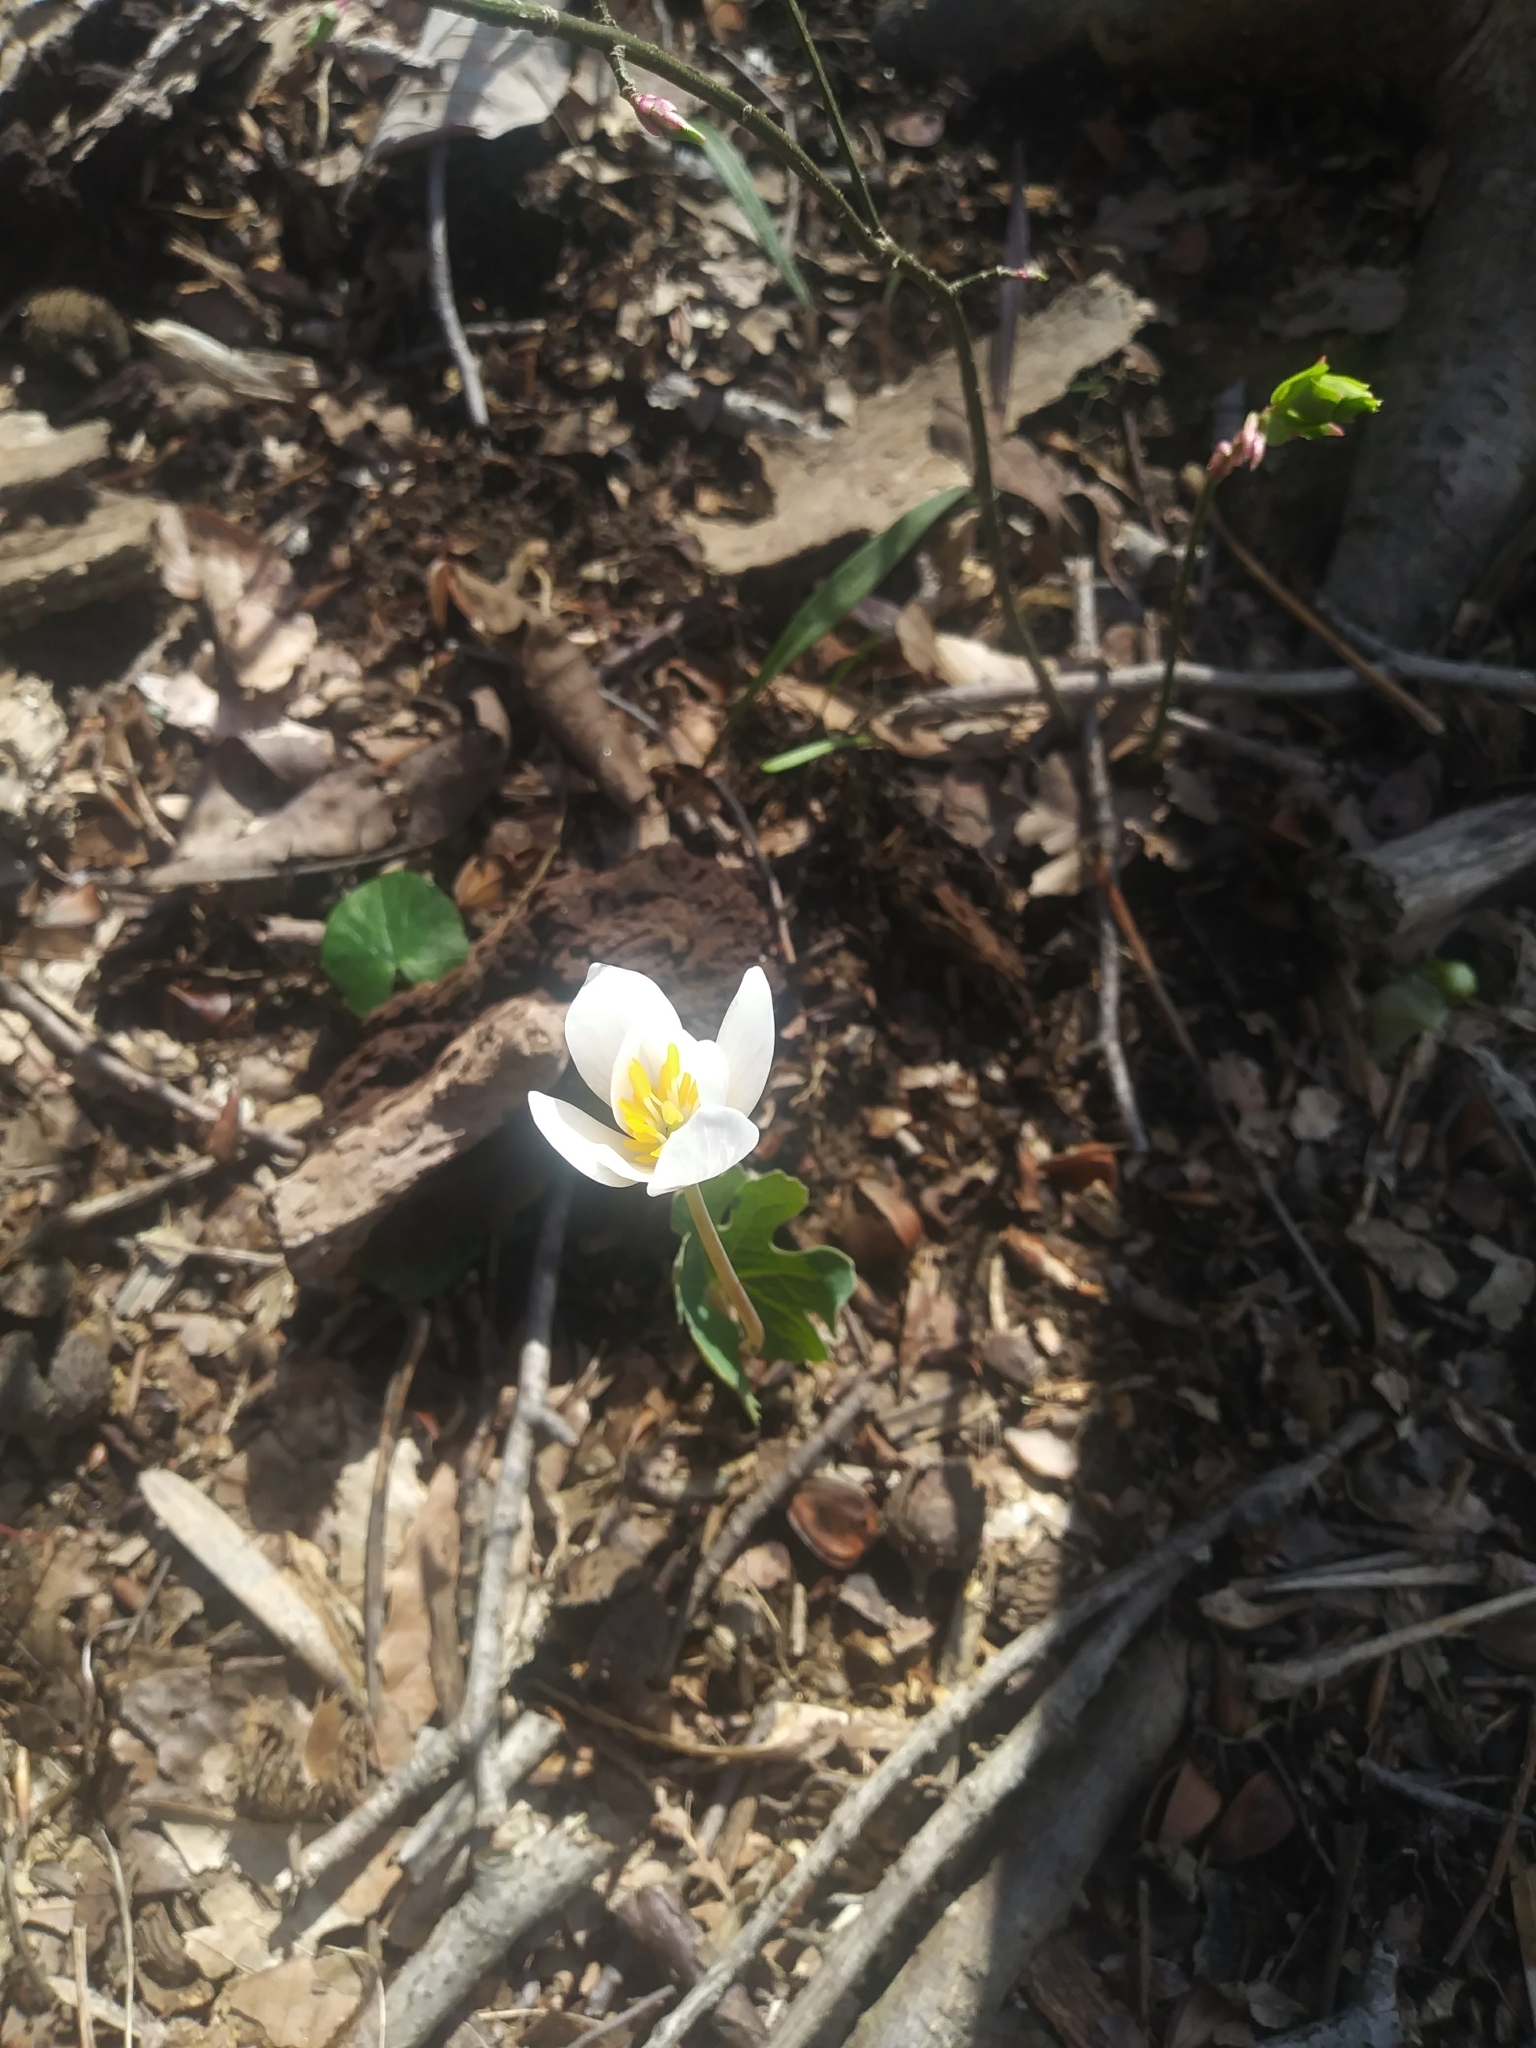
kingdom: Plantae
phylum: Tracheophyta
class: Magnoliopsida
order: Ranunculales
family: Papaveraceae
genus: Sanguinaria
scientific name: Sanguinaria canadensis
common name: Bloodroot
